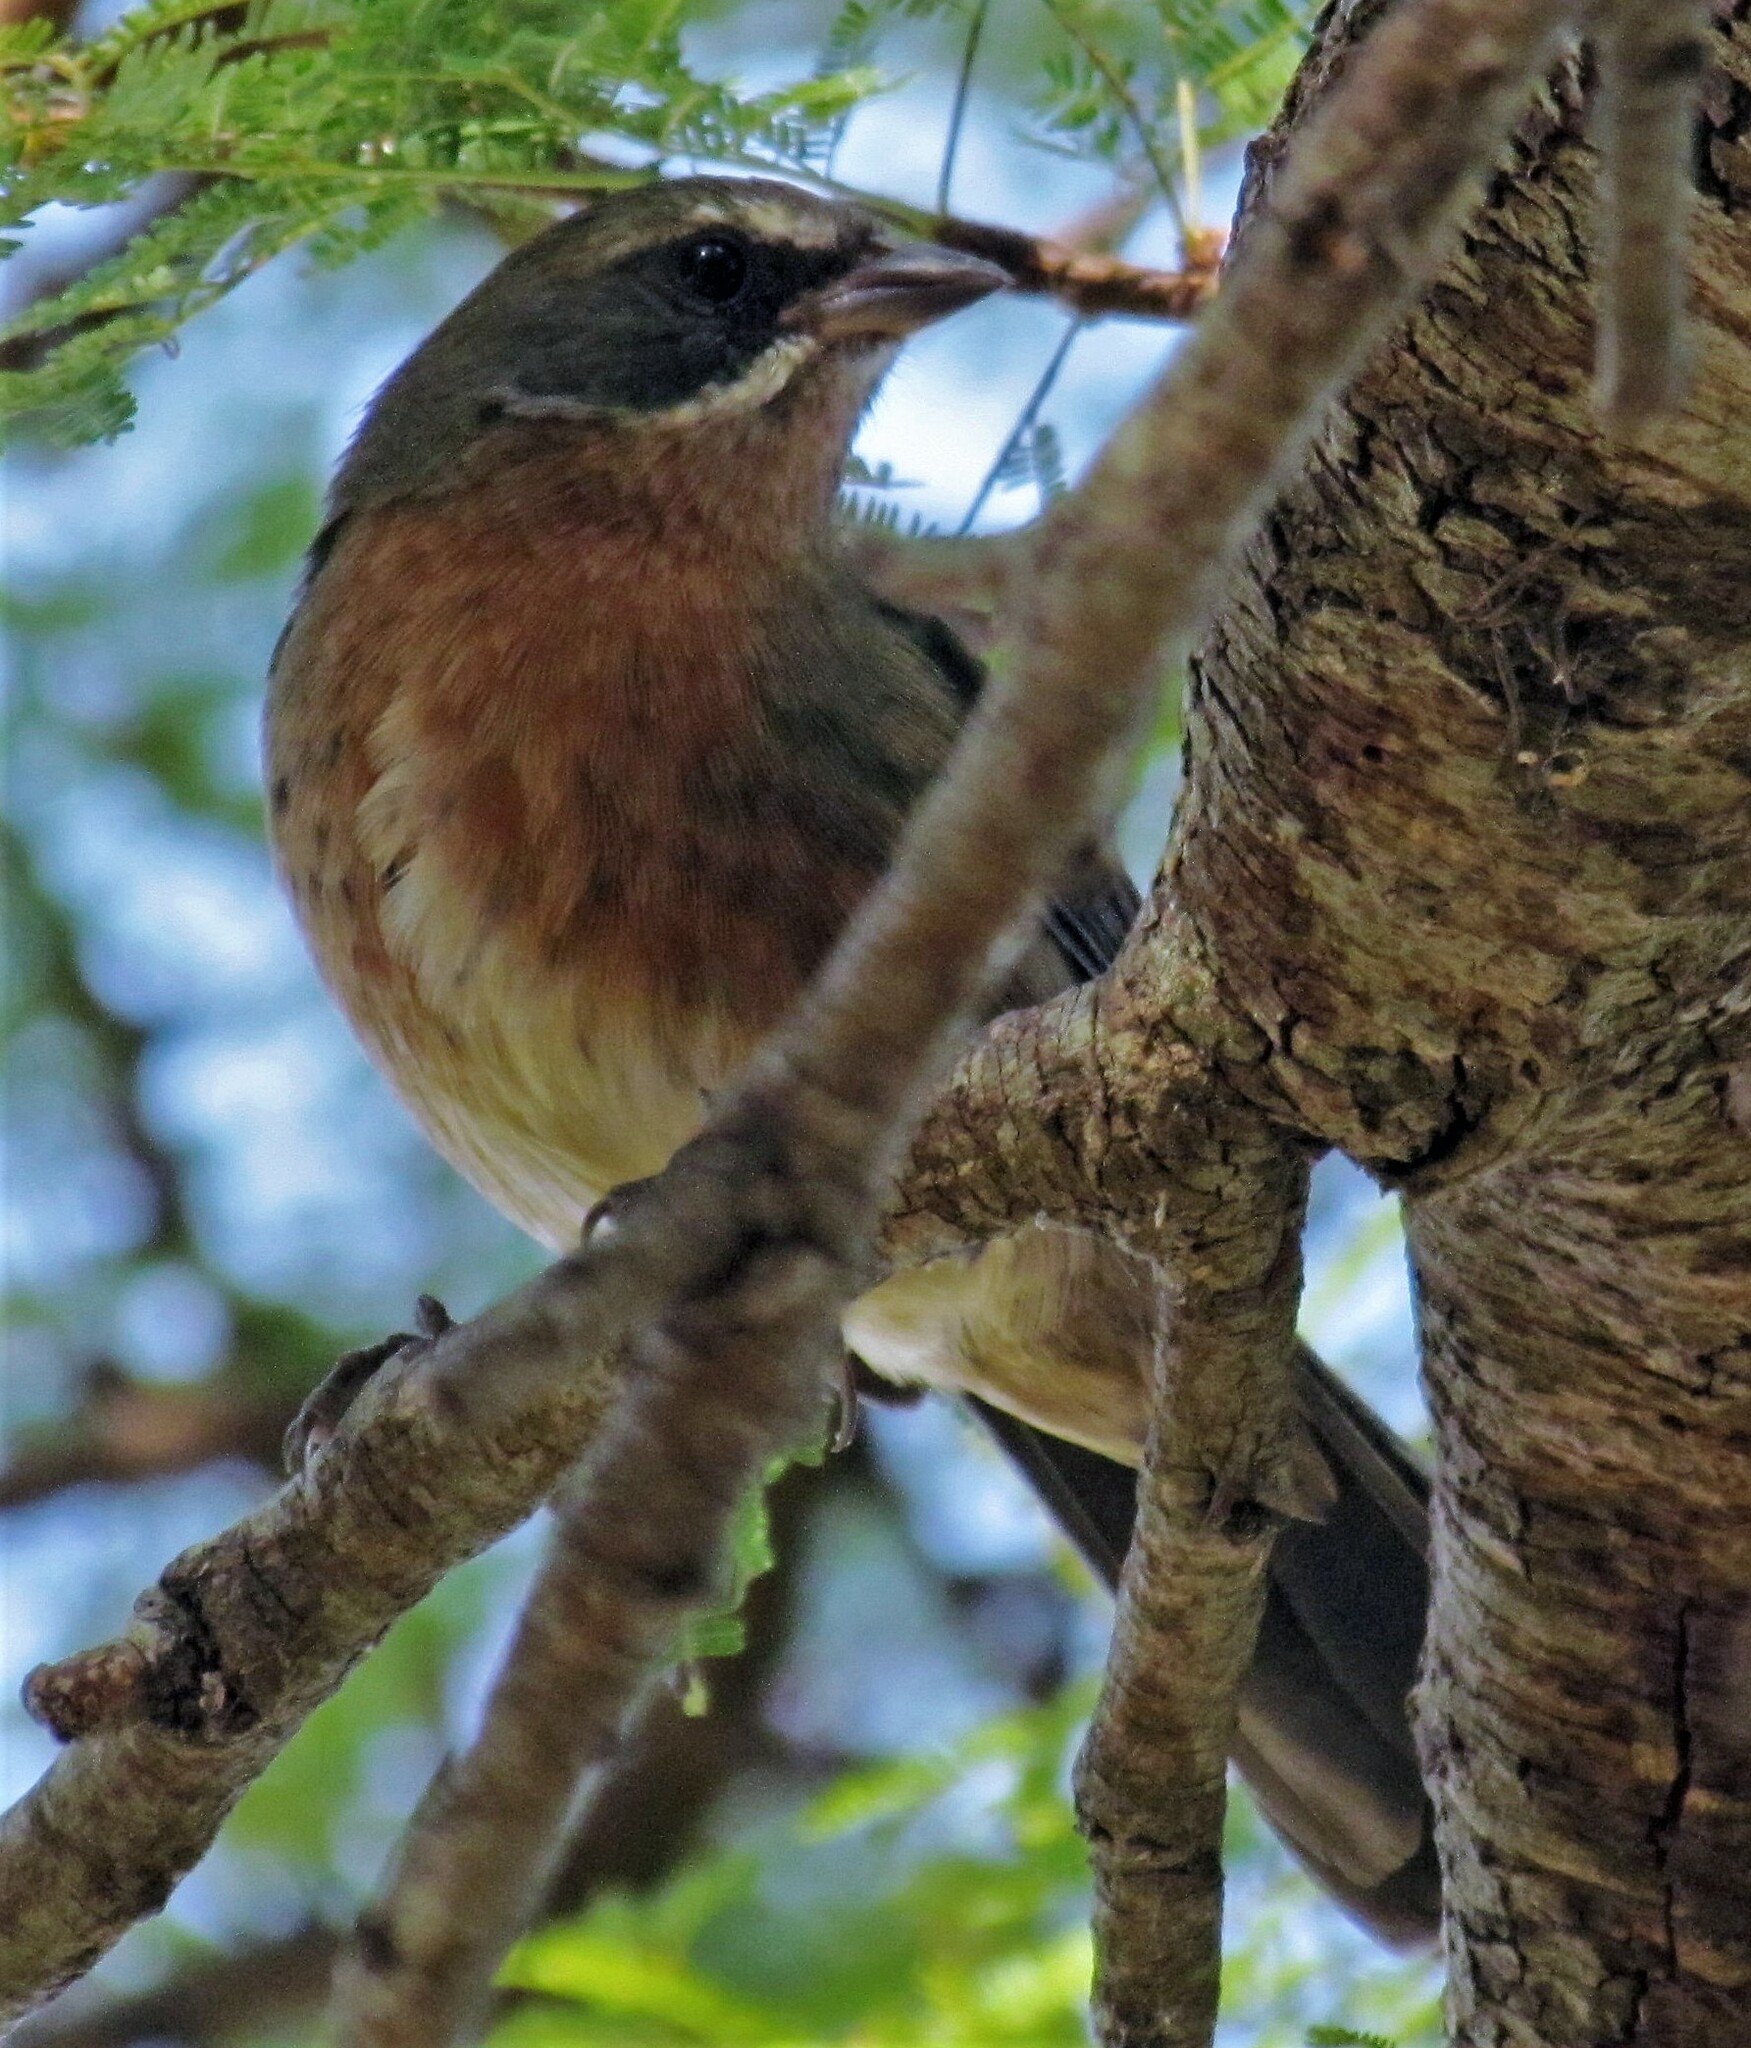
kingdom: Animalia
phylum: Chordata
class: Aves
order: Passeriformes
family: Thraupidae
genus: Poospiza
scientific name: Poospiza nigrorufa
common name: Black-and-rufous warbling finch
